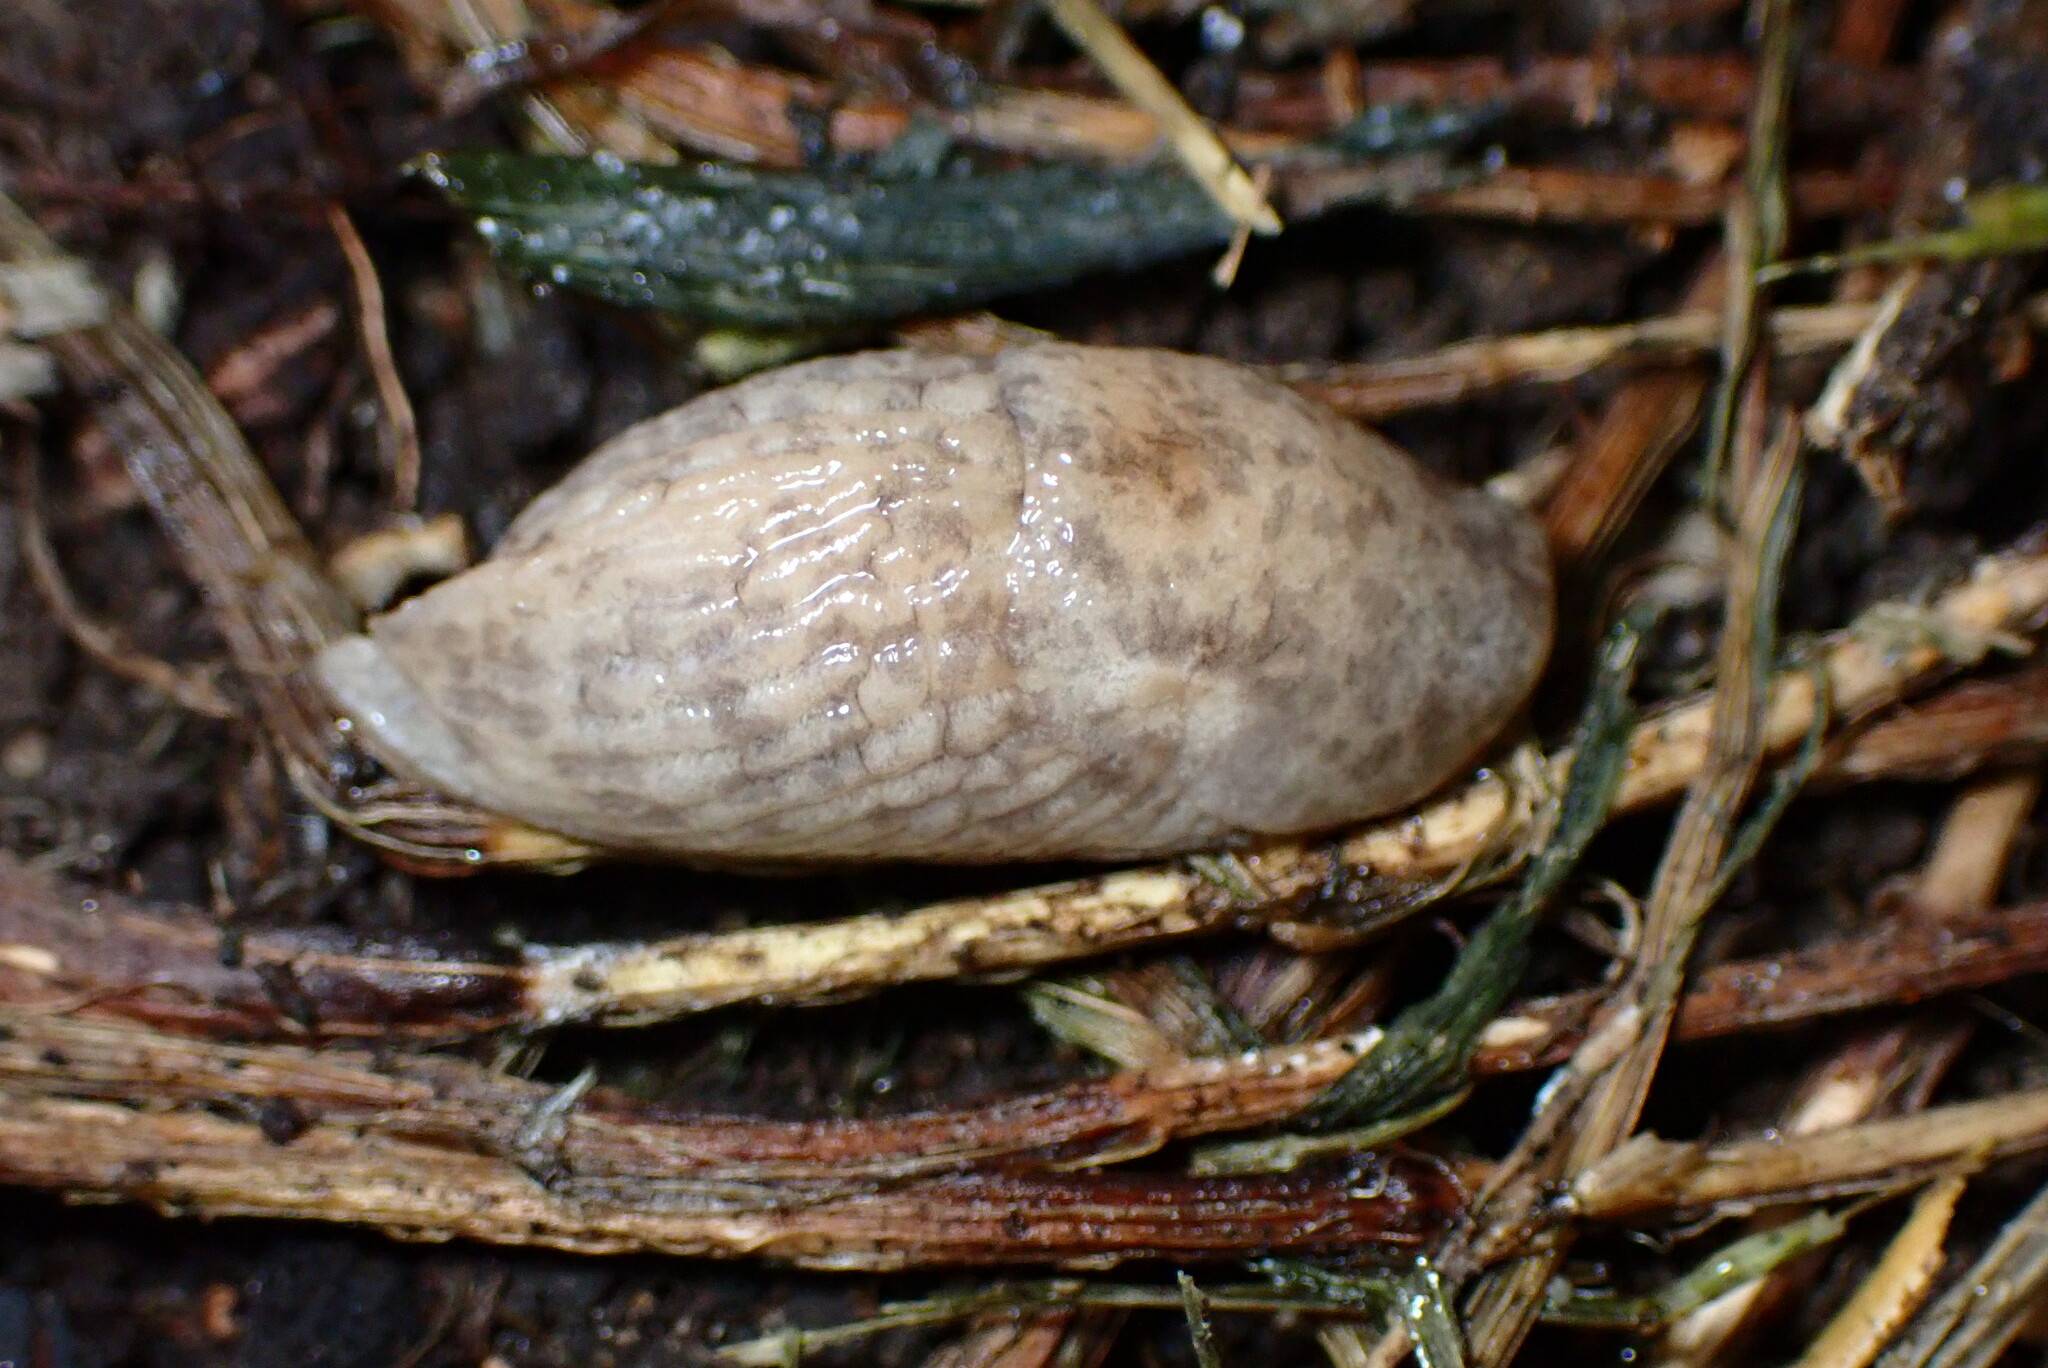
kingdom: Animalia
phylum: Mollusca
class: Gastropoda
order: Stylommatophora
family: Agriolimacidae
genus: Deroceras
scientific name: Deroceras reticulatum
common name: Gray field slug
